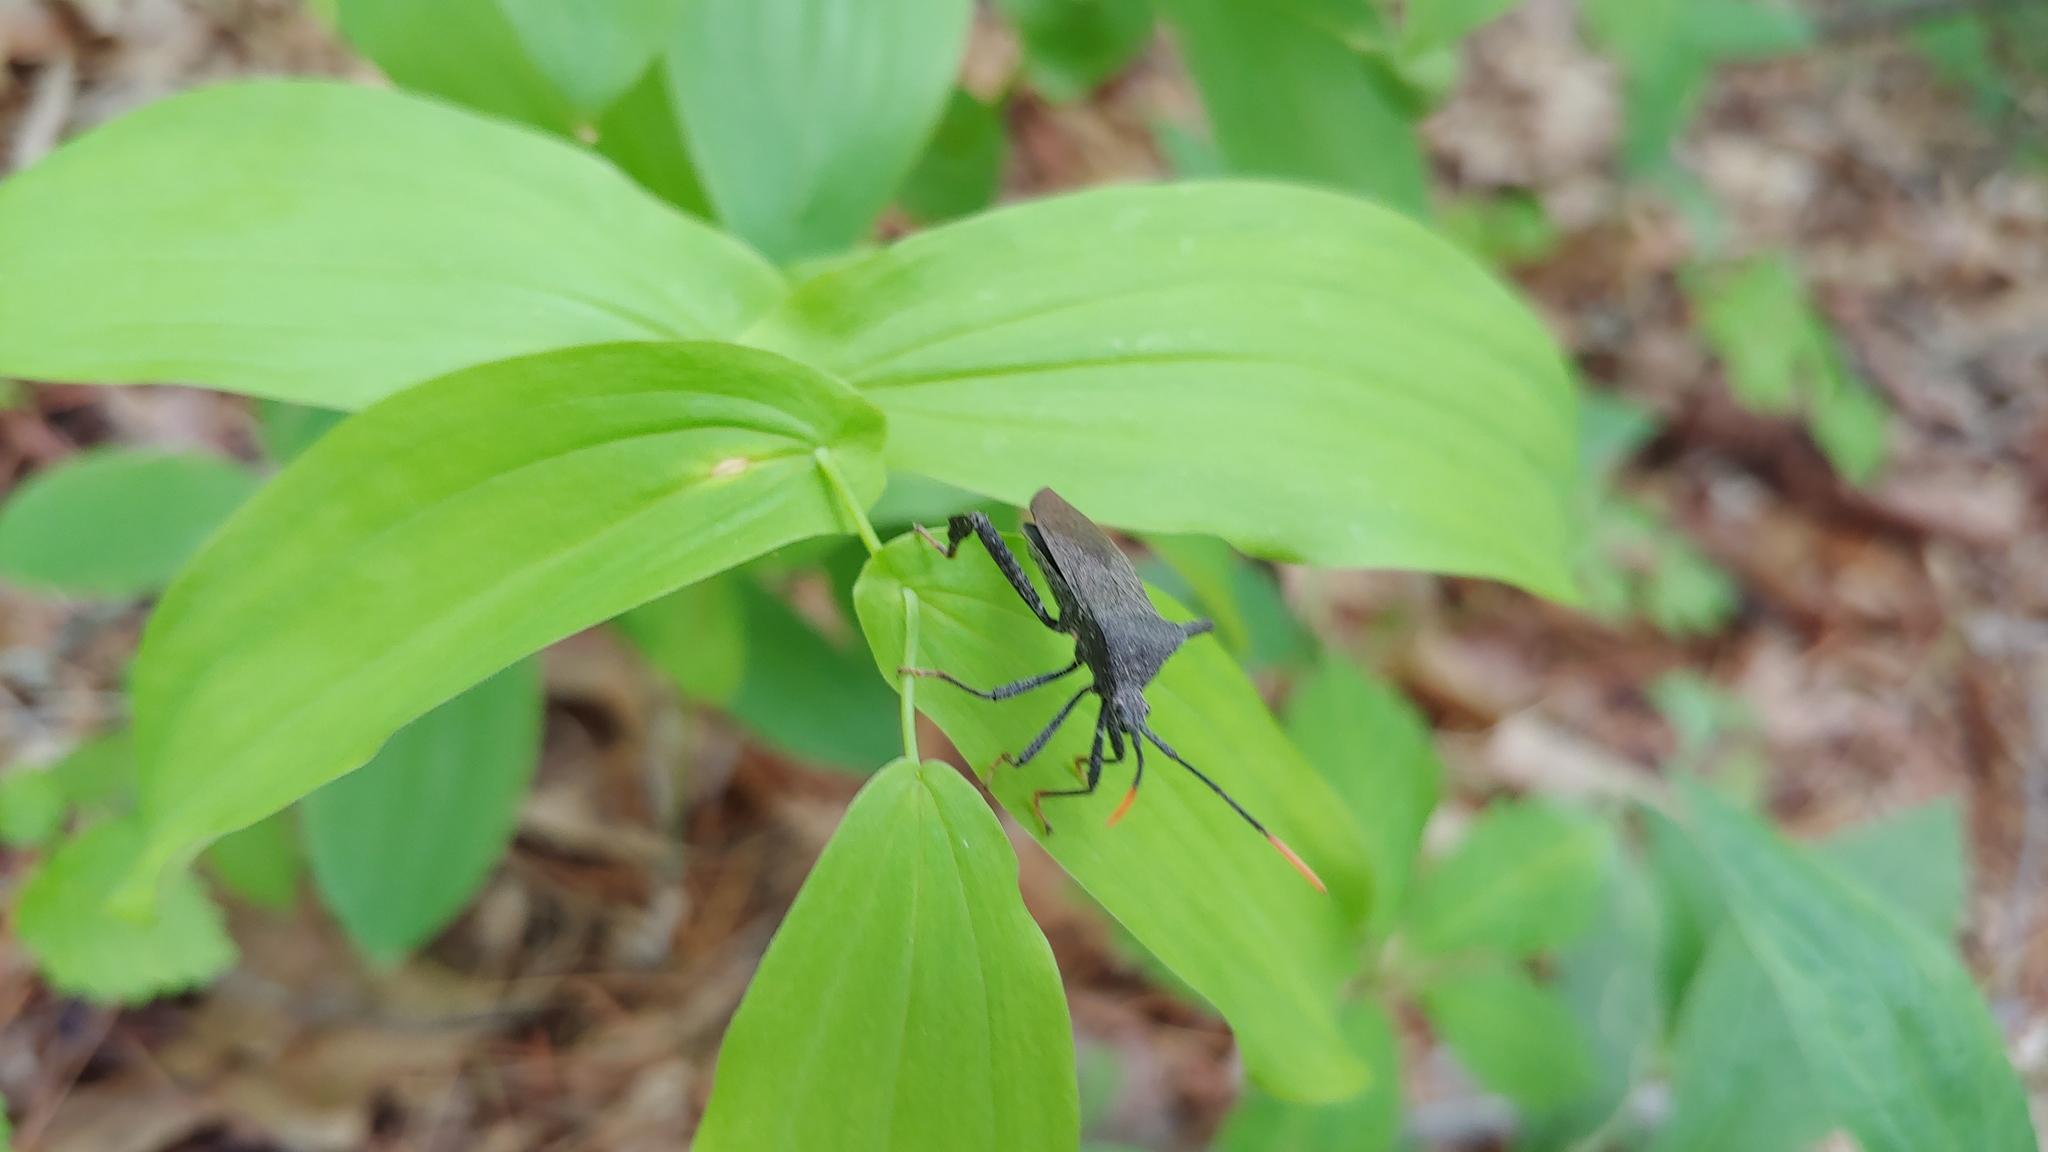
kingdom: Animalia
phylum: Arthropoda
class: Insecta
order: Hemiptera
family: Coreidae
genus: Acanthocephala
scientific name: Acanthocephala terminalis
